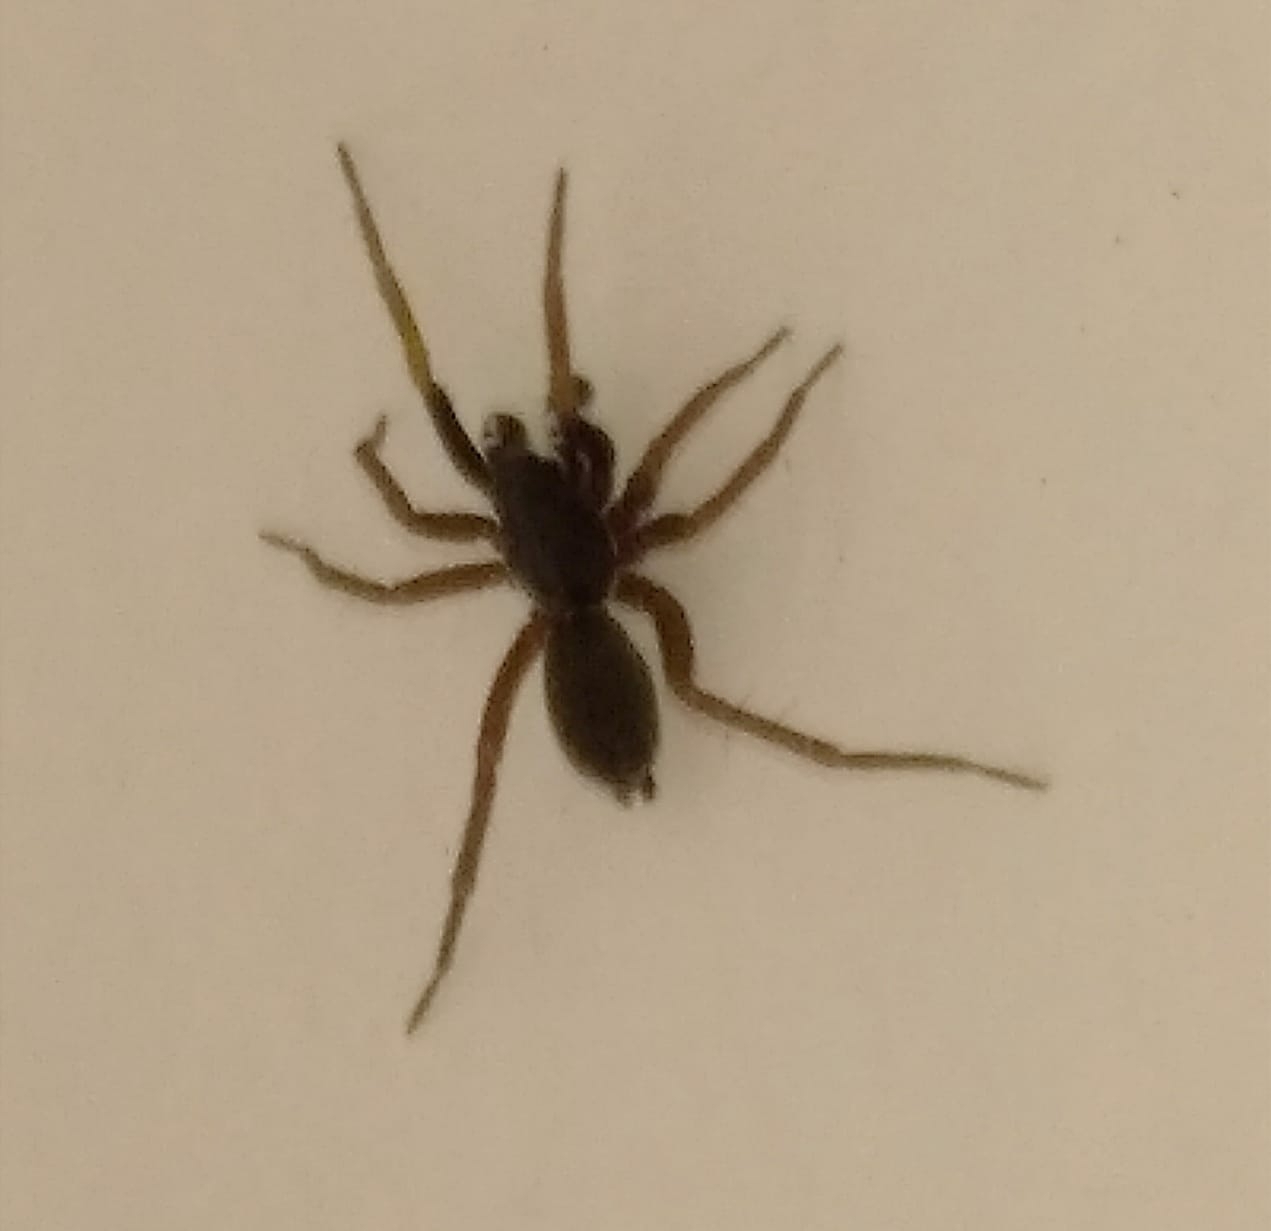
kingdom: Animalia
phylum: Arthropoda
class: Arachnida
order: Araneae
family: Lycosidae
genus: Aulonia
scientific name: Aulonia albimana
